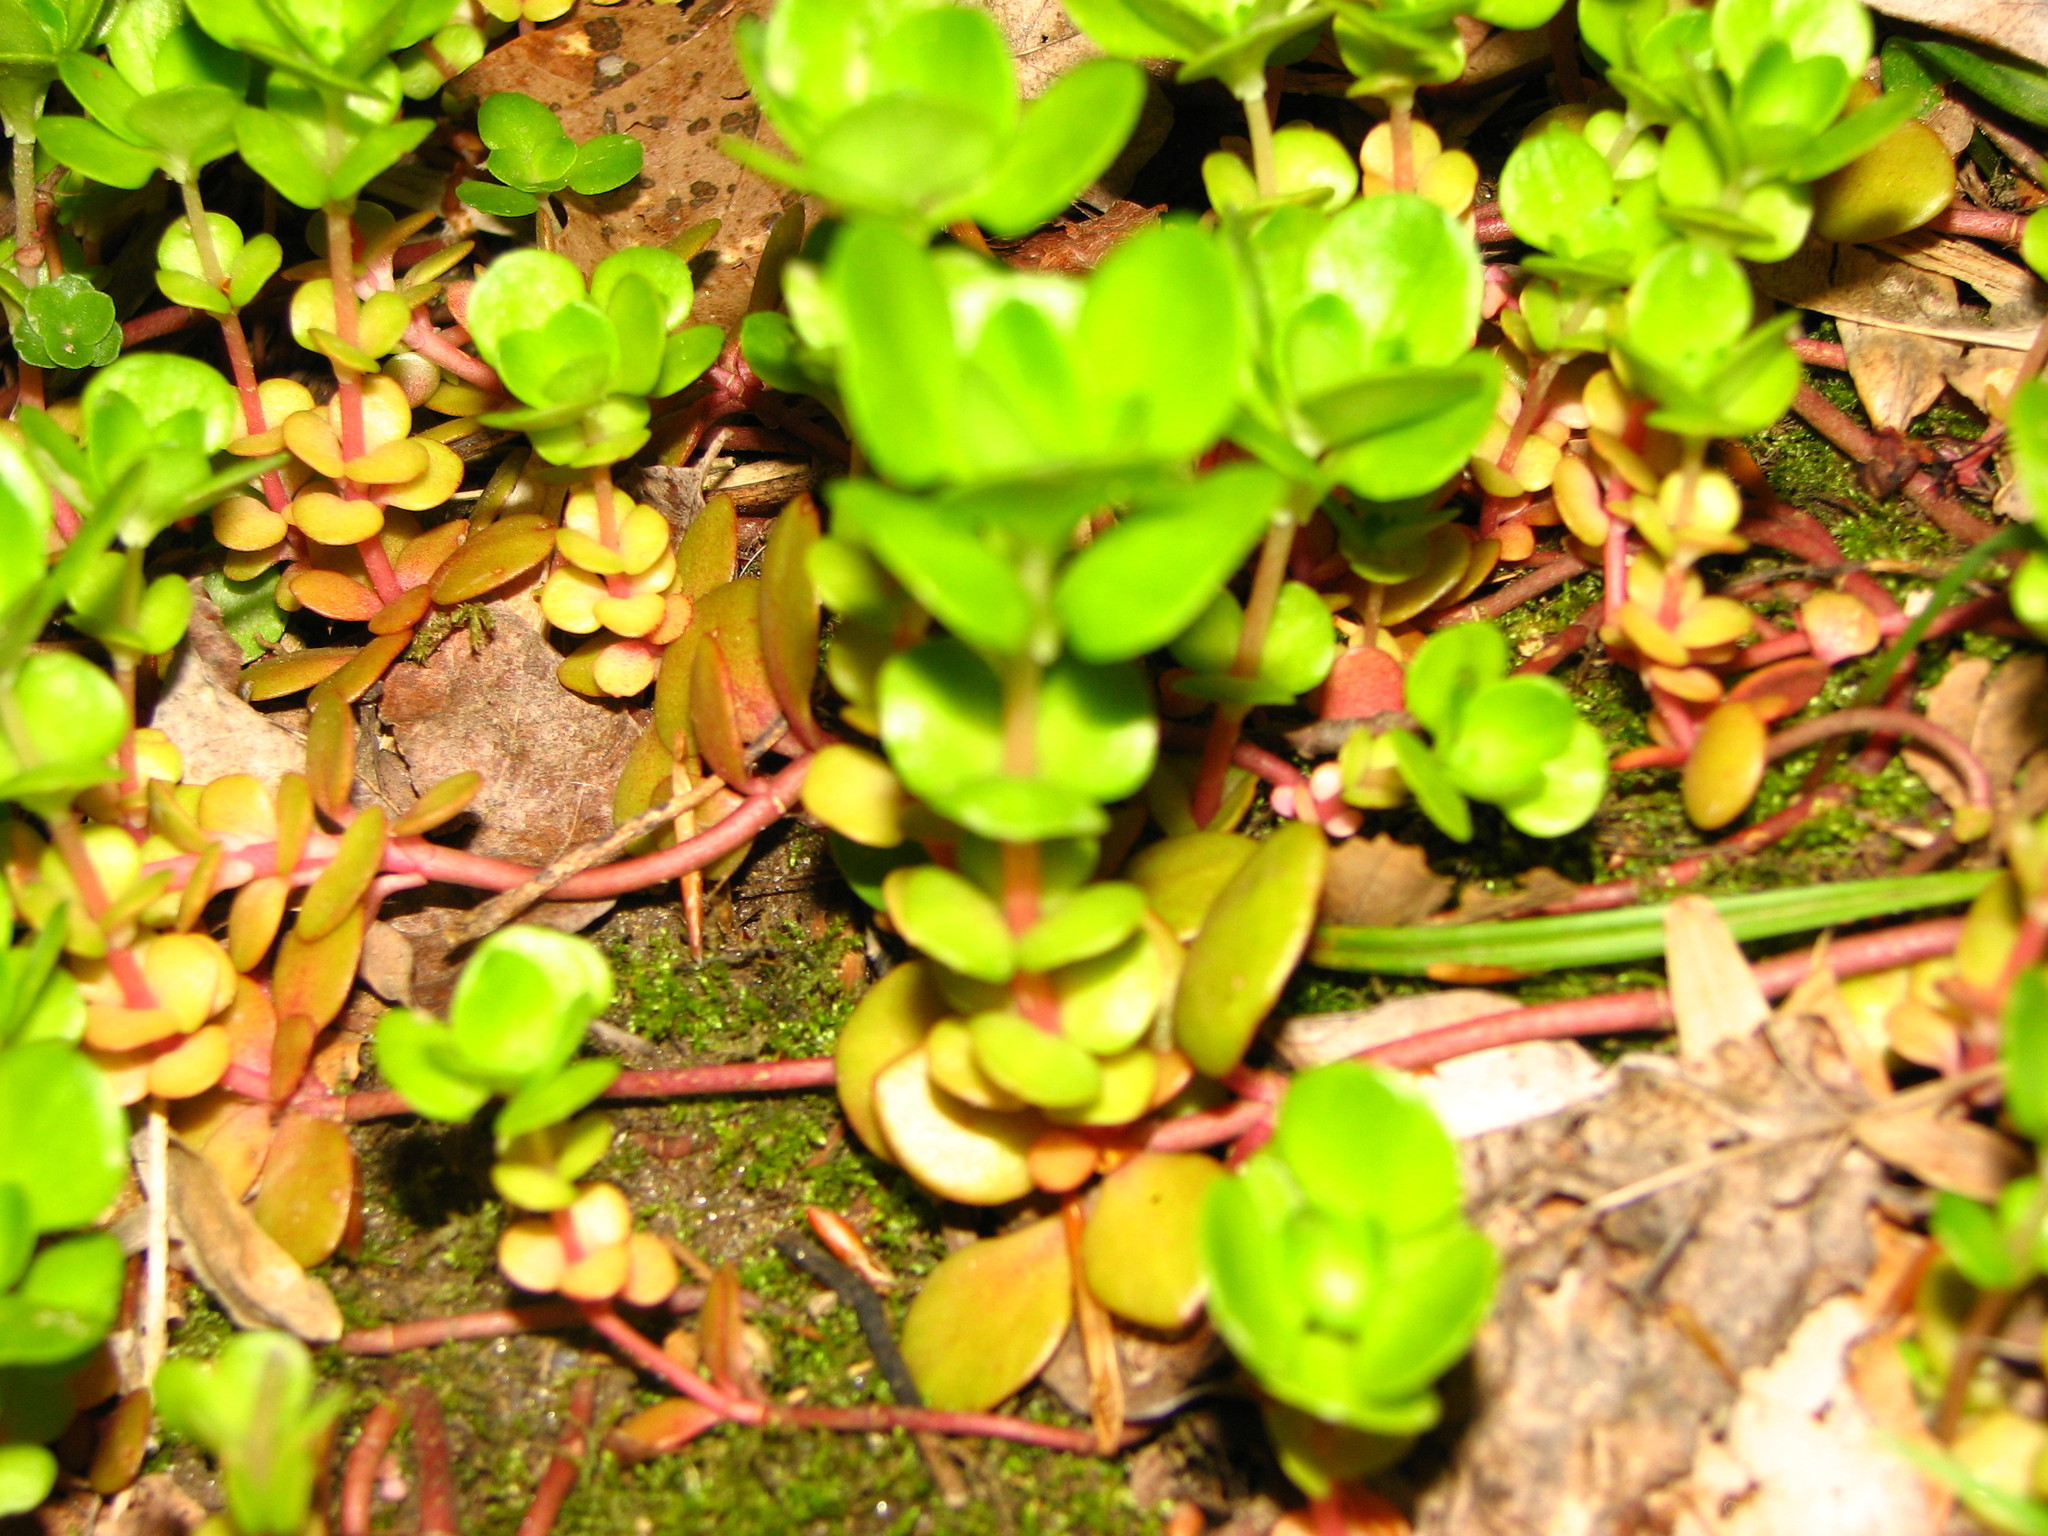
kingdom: Plantae
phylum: Tracheophyta
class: Magnoliopsida
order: Saxifragales
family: Crassulaceae
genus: Sedum
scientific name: Sedum ternatum
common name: Wild stonecrop
